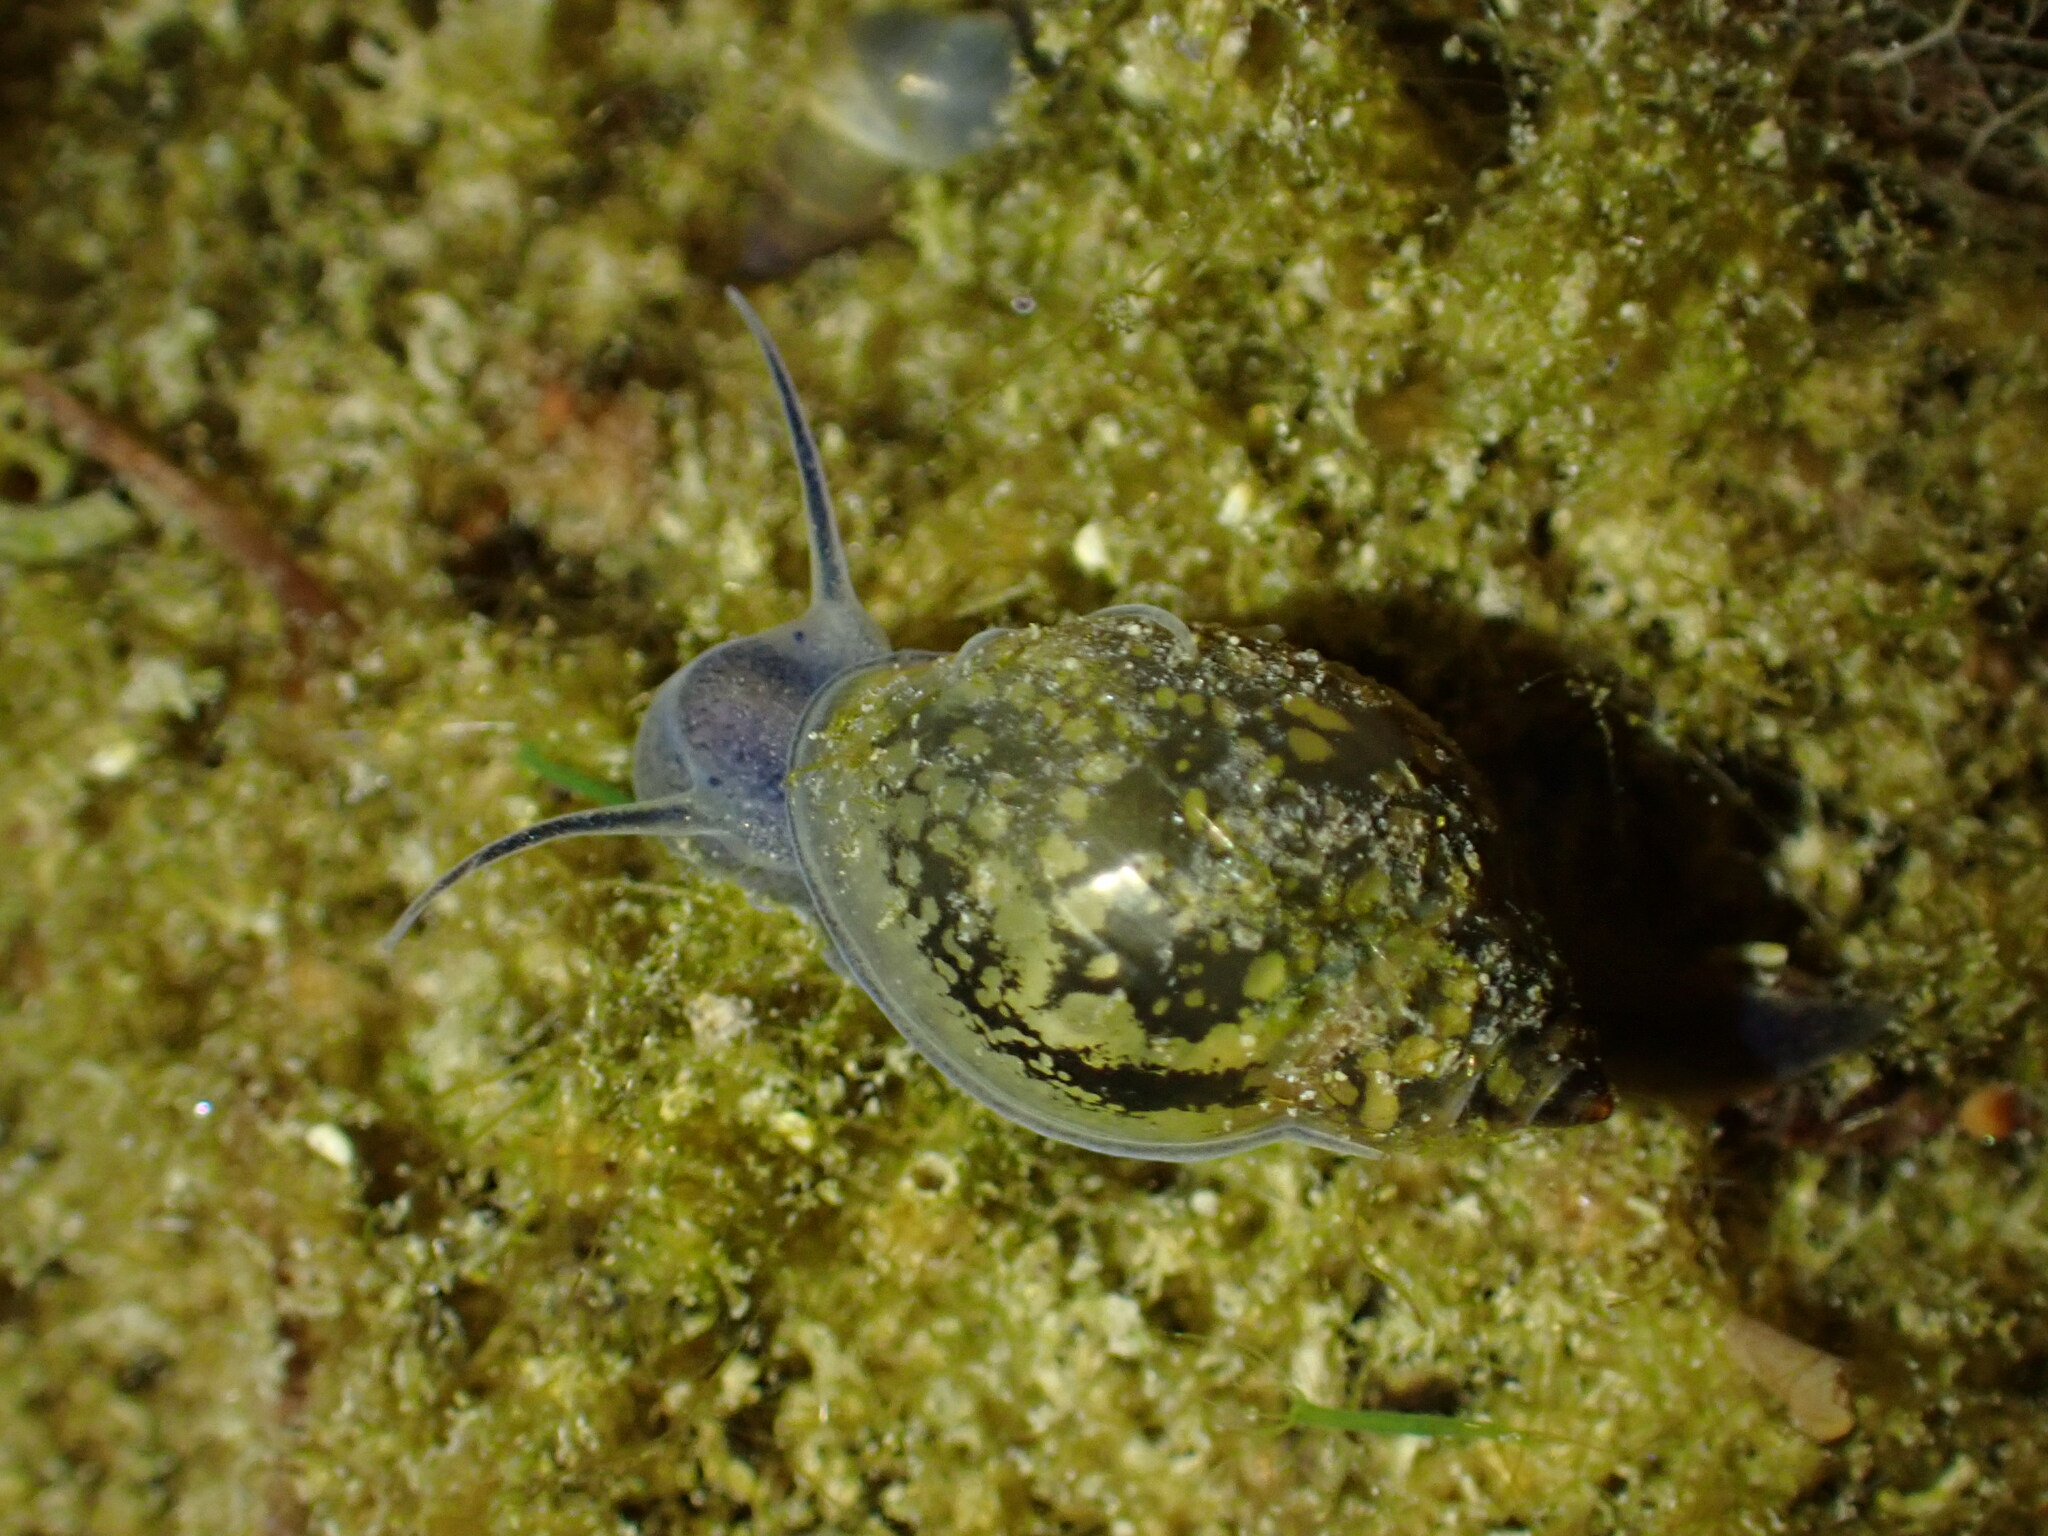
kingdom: Animalia
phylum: Mollusca
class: Gastropoda
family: Physidae
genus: Physella
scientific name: Physella acuta
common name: European physa
